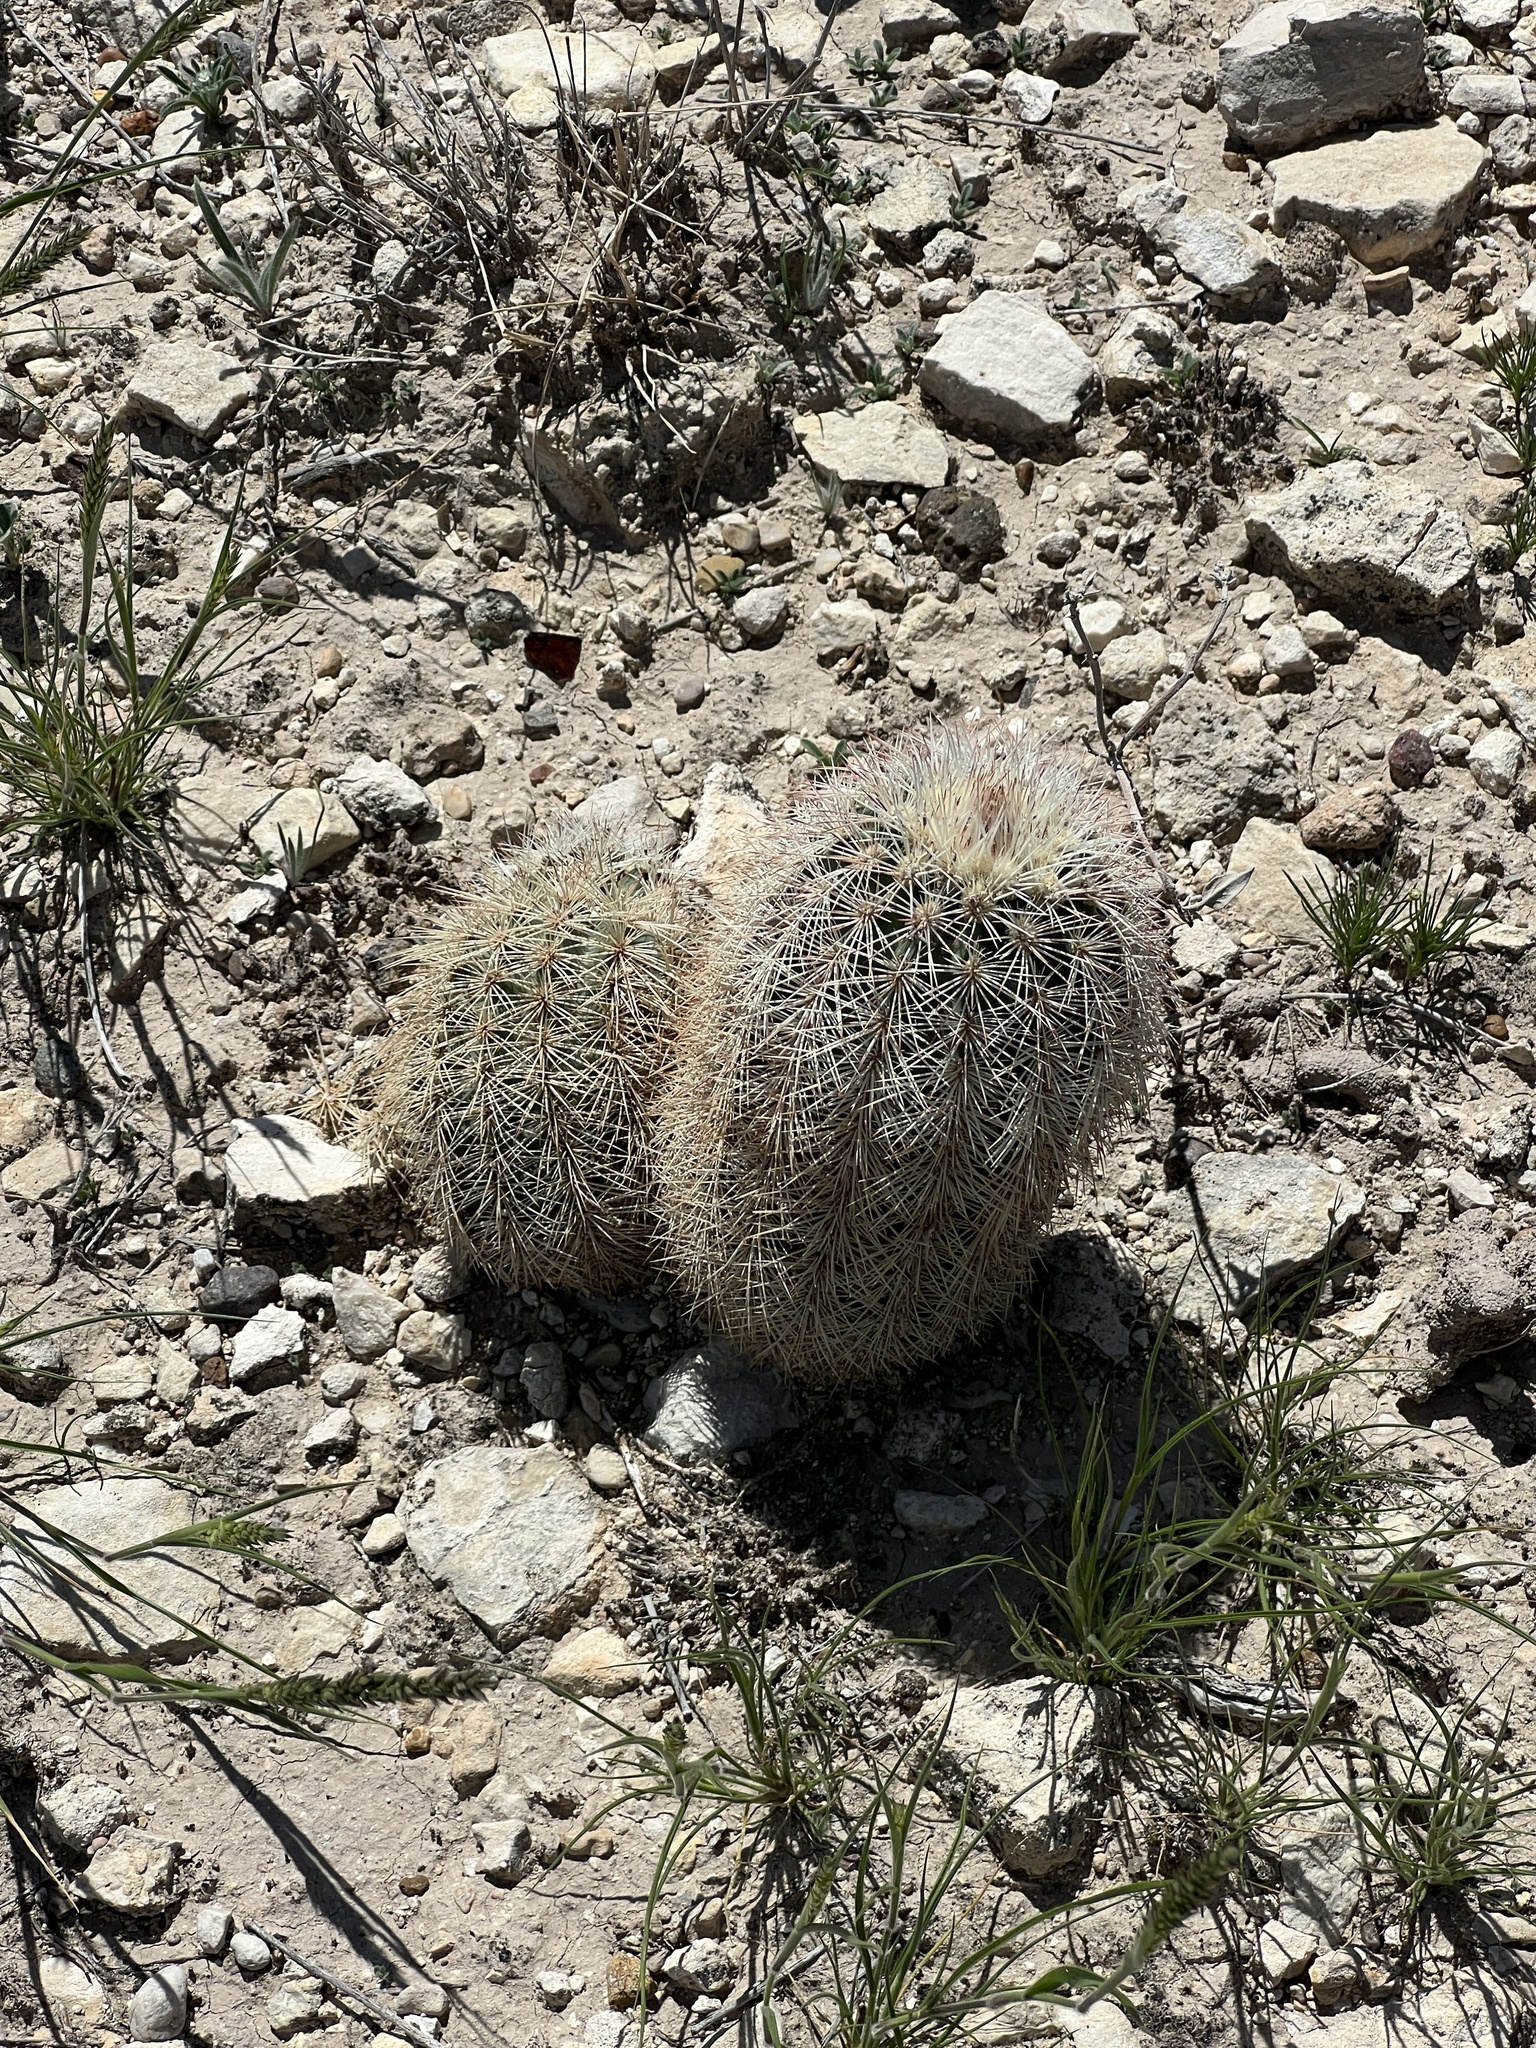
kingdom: Plantae
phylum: Tracheophyta
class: Magnoliopsida
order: Caryophyllales
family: Cactaceae
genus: Echinocereus
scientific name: Echinocereus dasyacanthus
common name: Spiny hedgehog cactus
